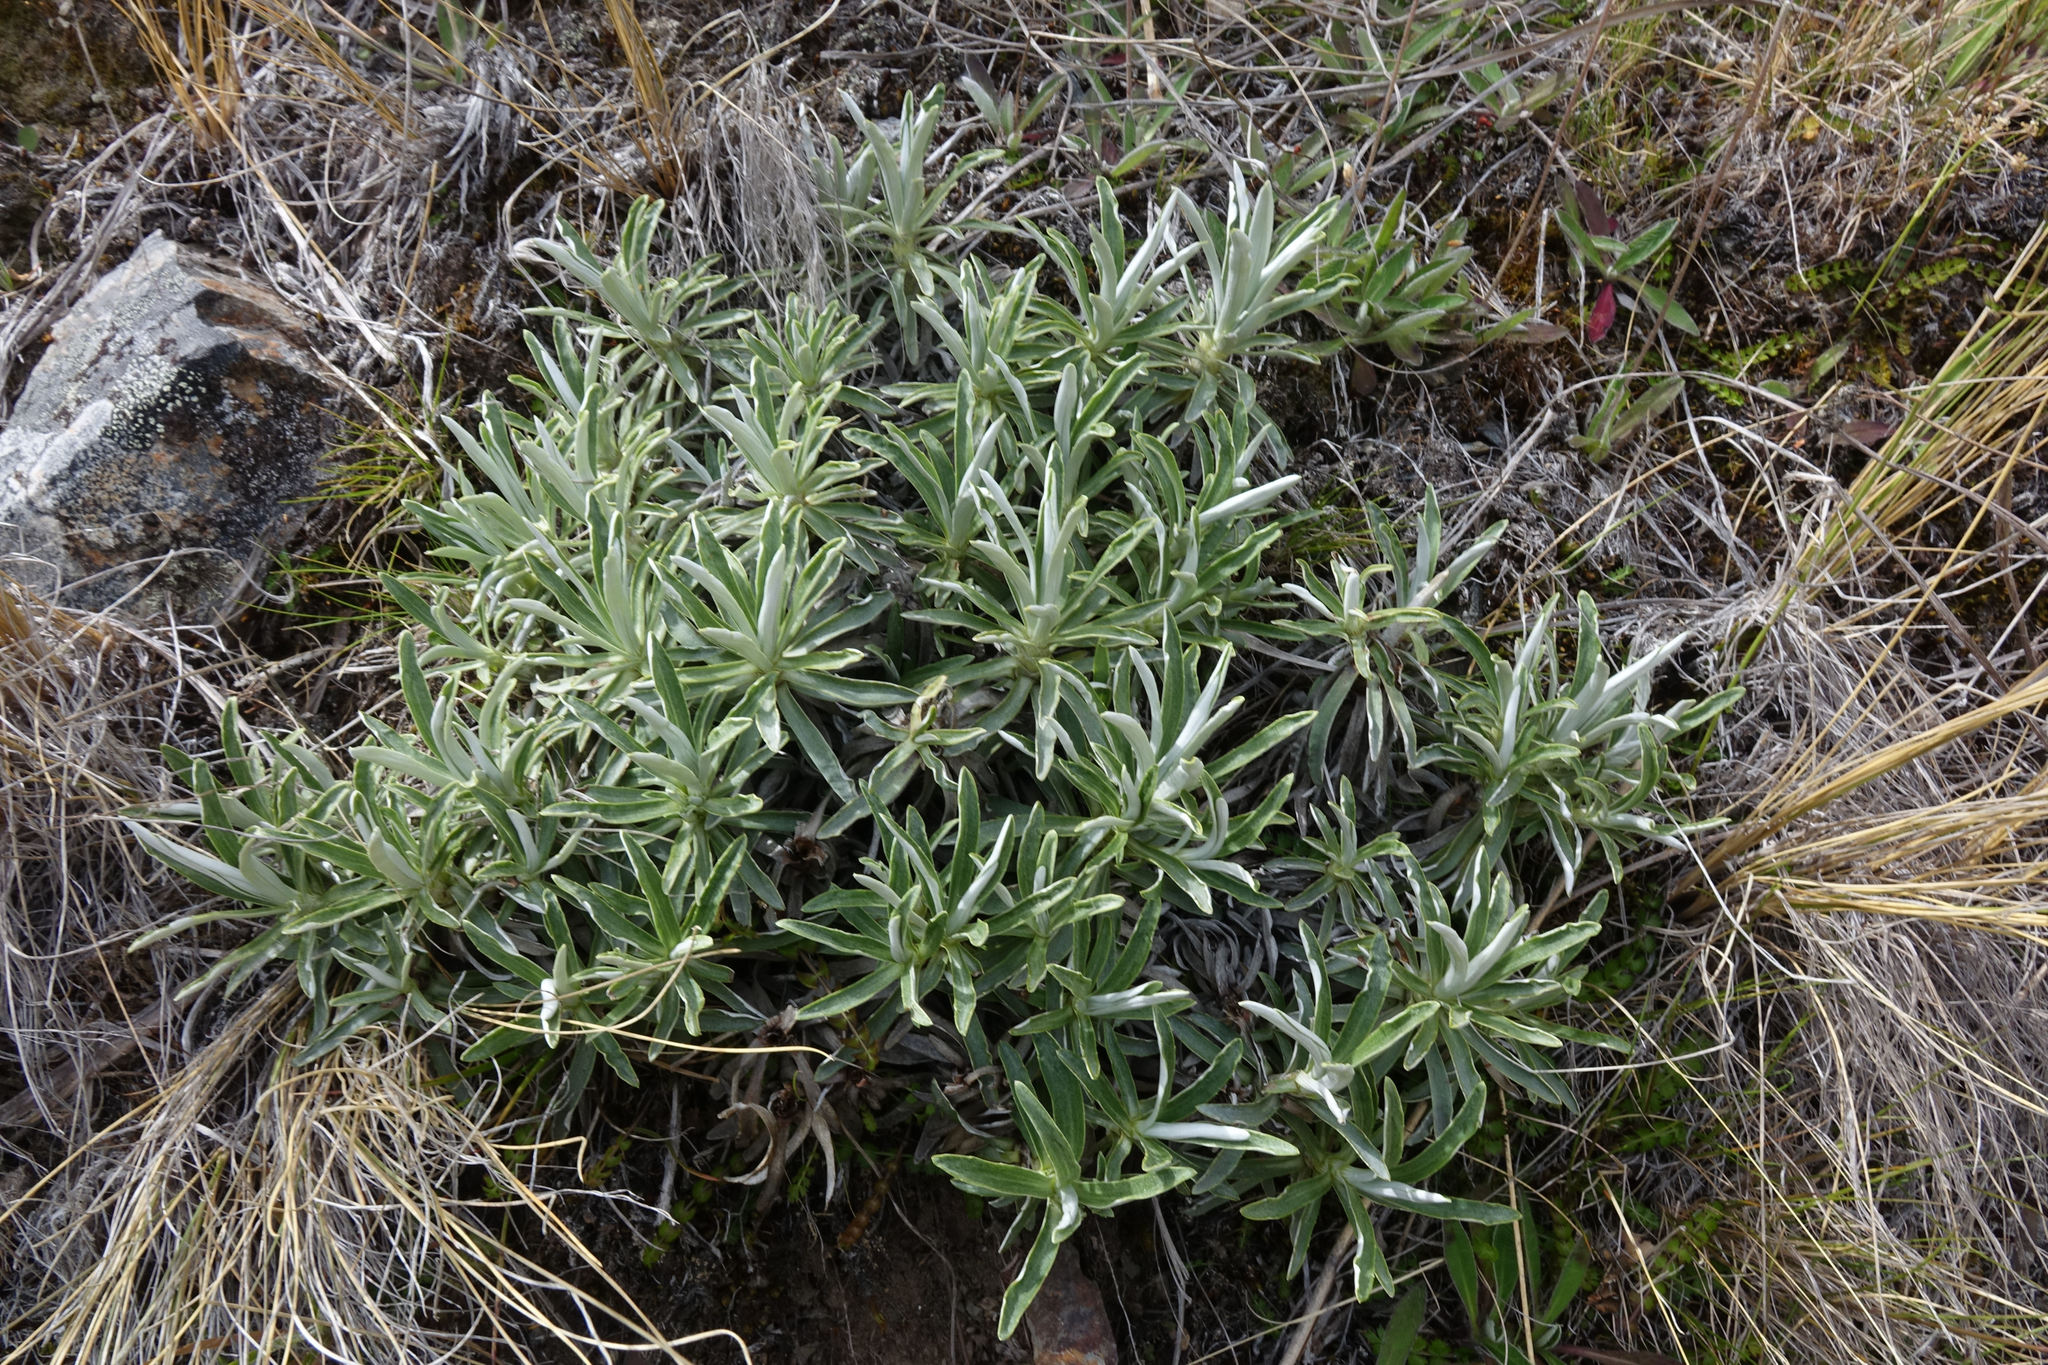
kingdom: Plantae
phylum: Tracheophyta
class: Magnoliopsida
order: Asterales
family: Asteraceae
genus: Celmisia
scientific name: Celmisia angustifolia
